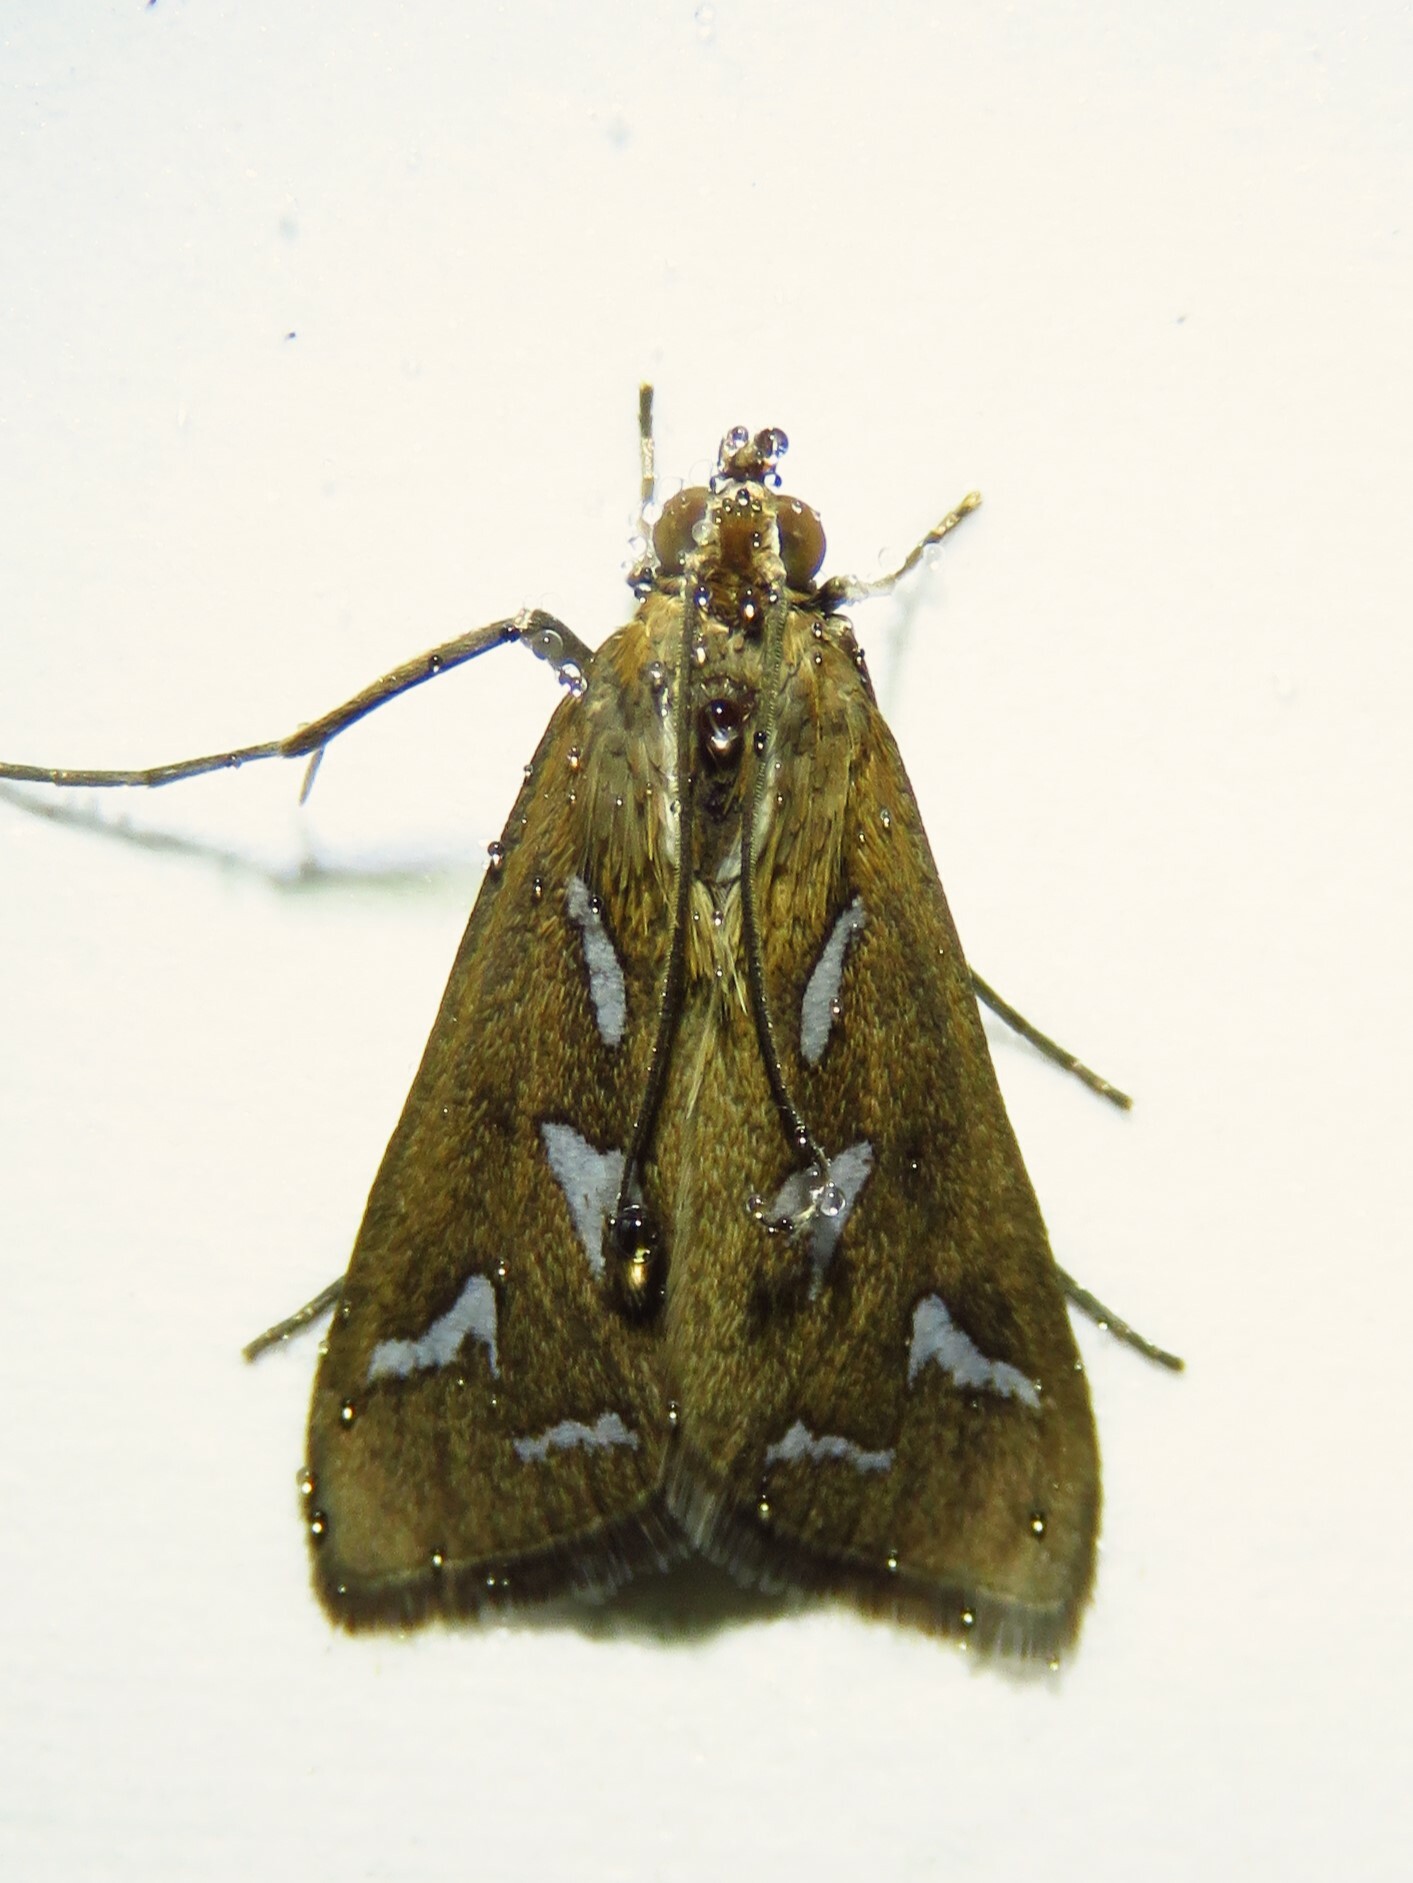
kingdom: Animalia
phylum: Arthropoda
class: Insecta
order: Lepidoptera
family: Crambidae
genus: Diastictis
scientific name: Diastictis fracturalis
